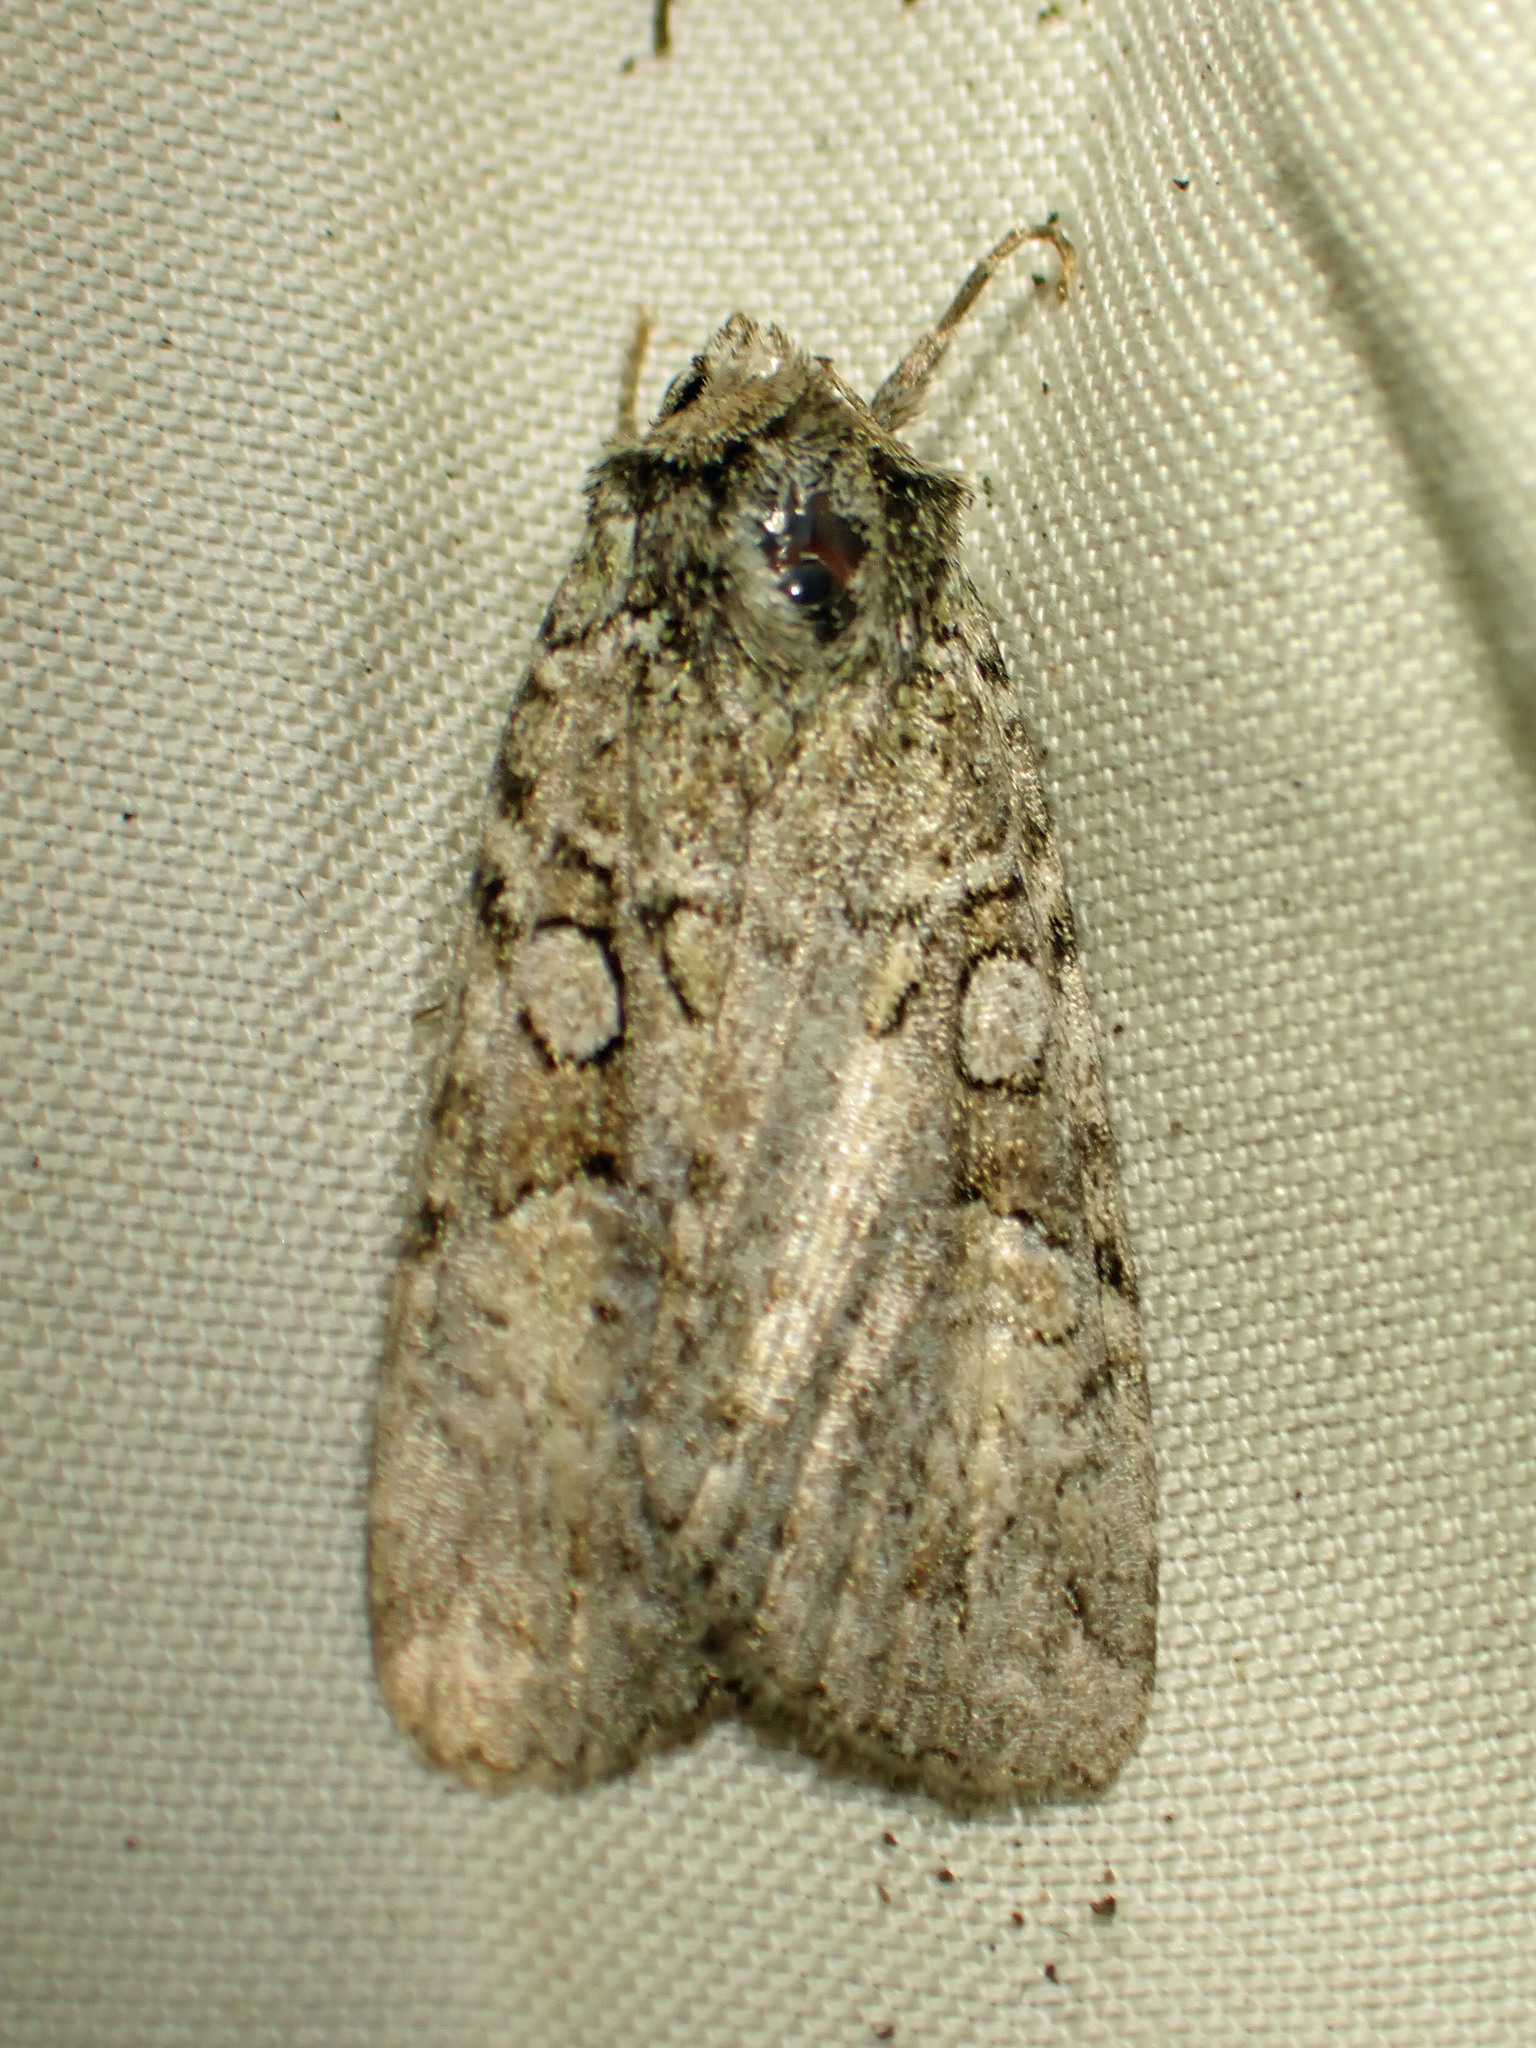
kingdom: Animalia
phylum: Arthropoda
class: Insecta
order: Lepidoptera
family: Noctuidae
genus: Anaplectoides
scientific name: Anaplectoides pressus
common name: Dappled dart
